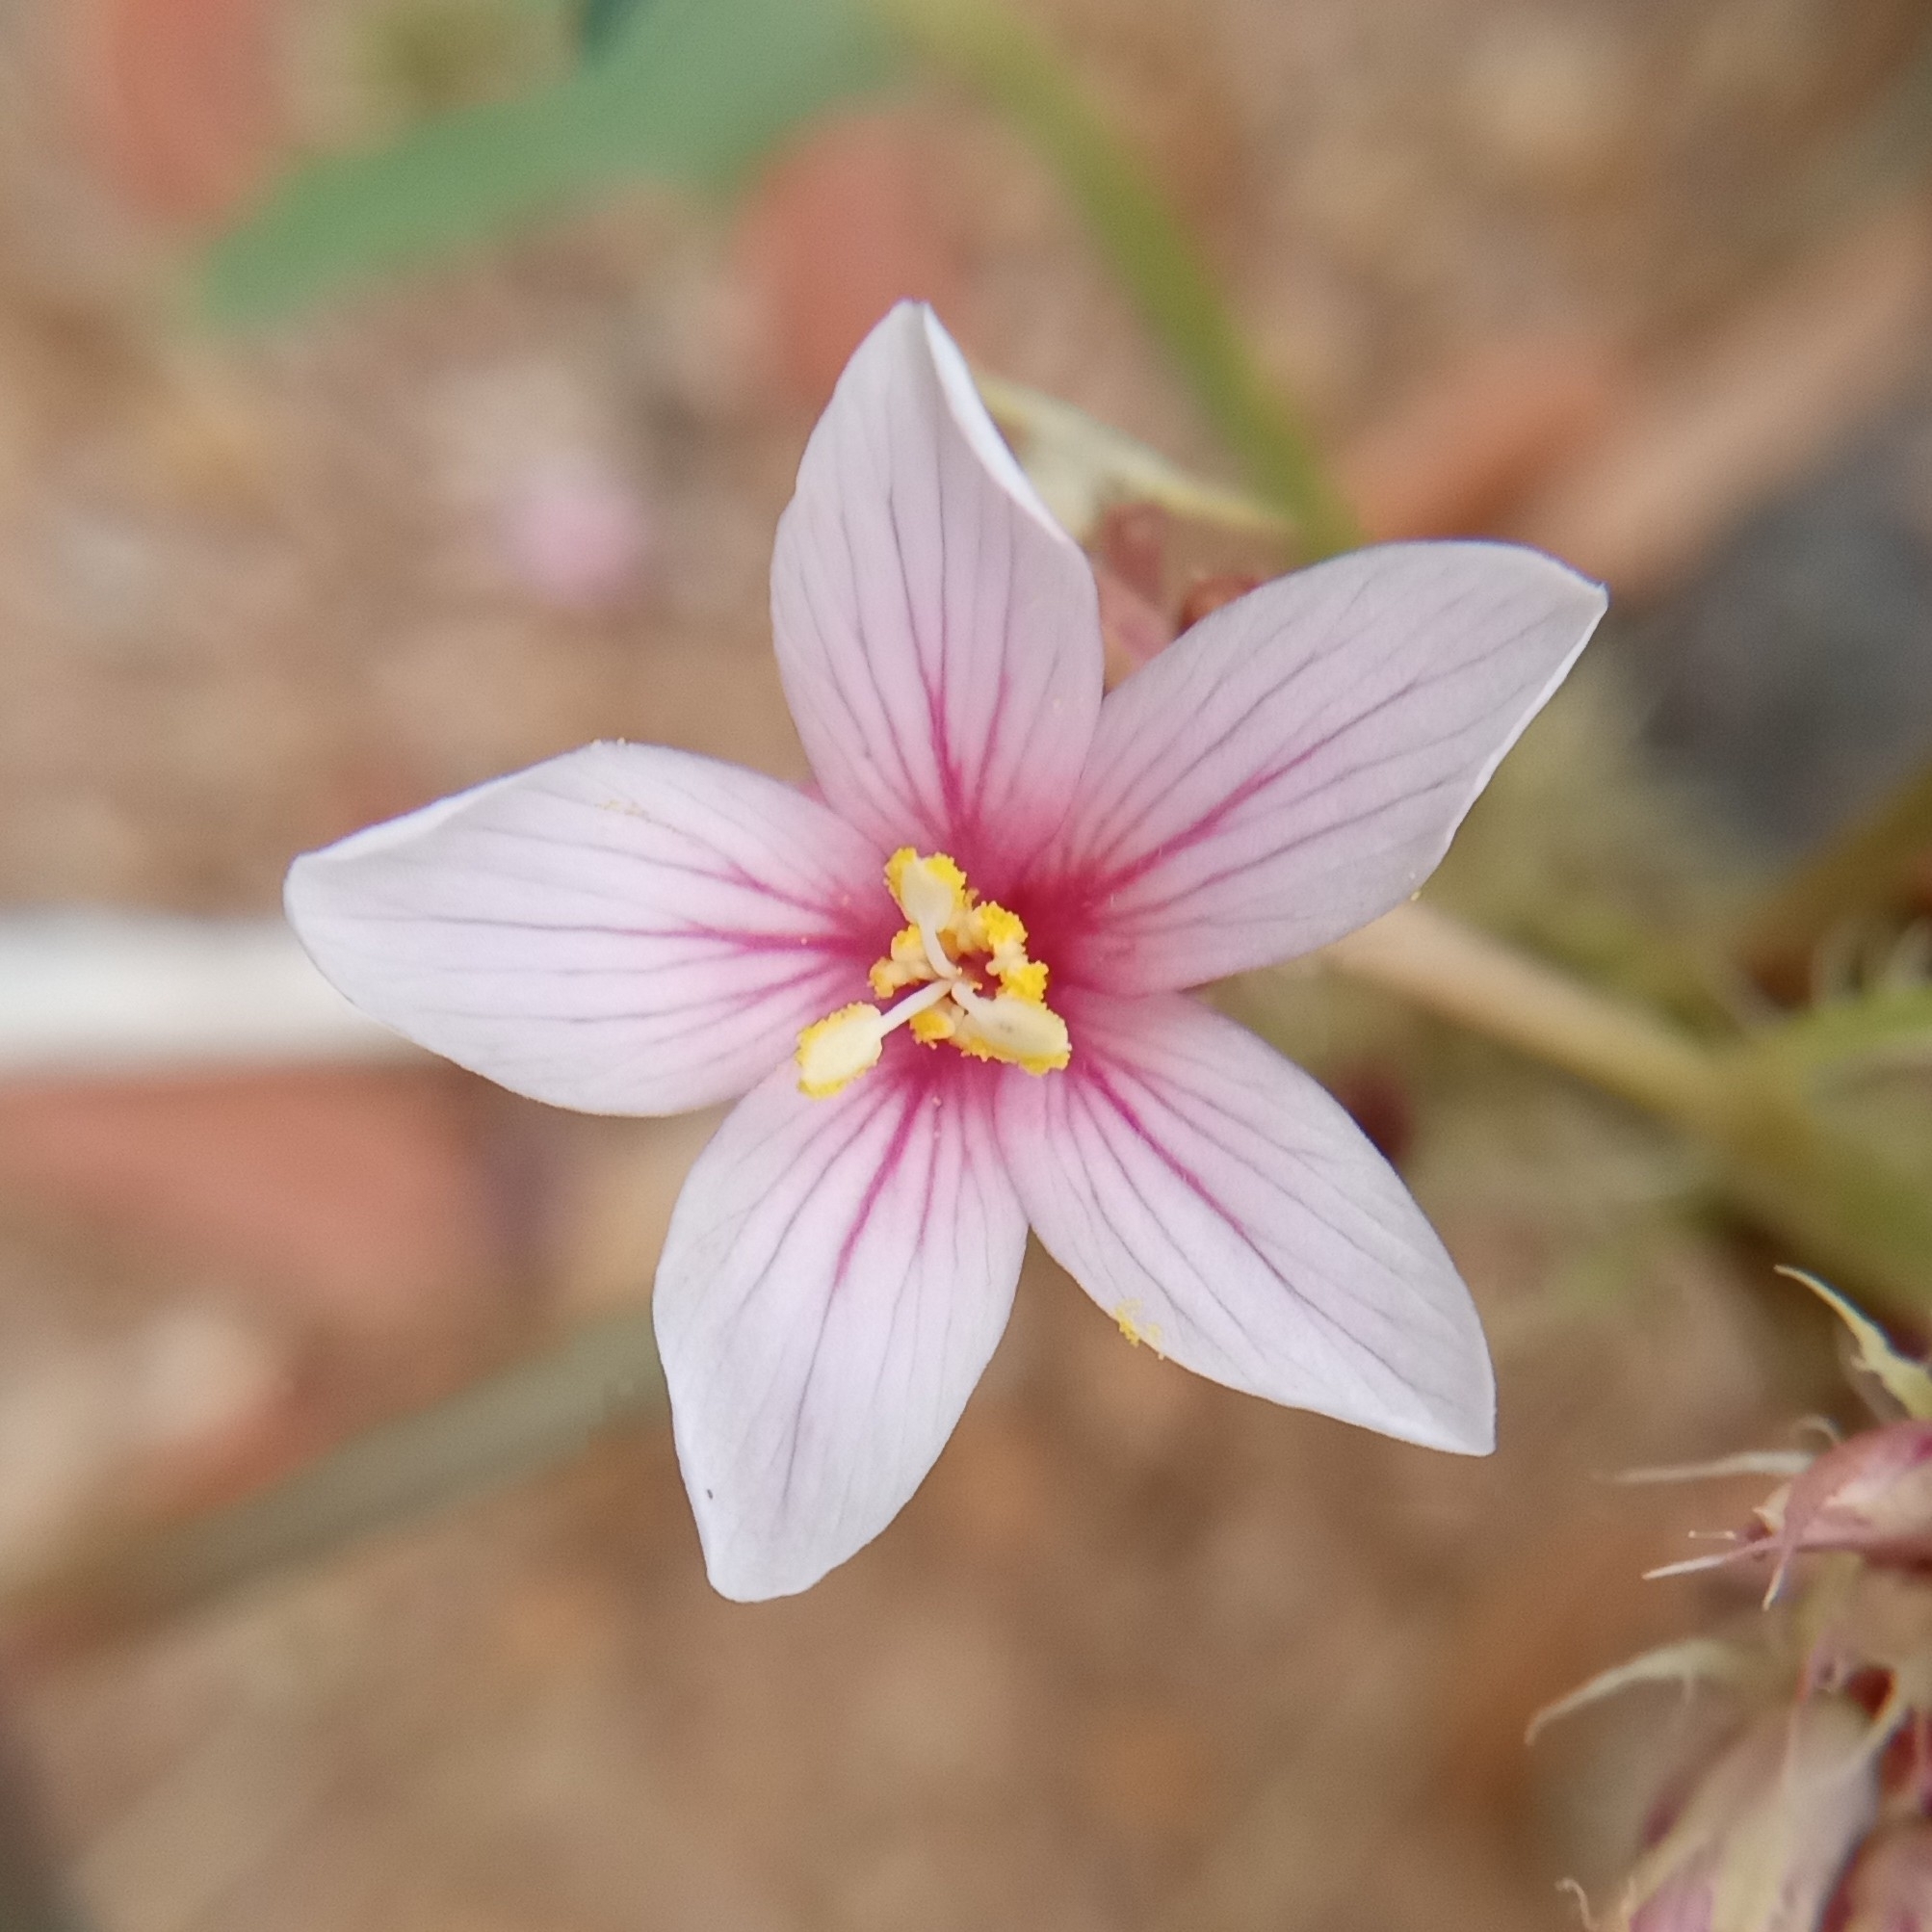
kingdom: Plantae
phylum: Tracheophyta
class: Magnoliopsida
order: Malpighiales
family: Euphorbiaceae
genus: Jatropha
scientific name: Jatropha macrorhiza
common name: Ragged nettlespurge
